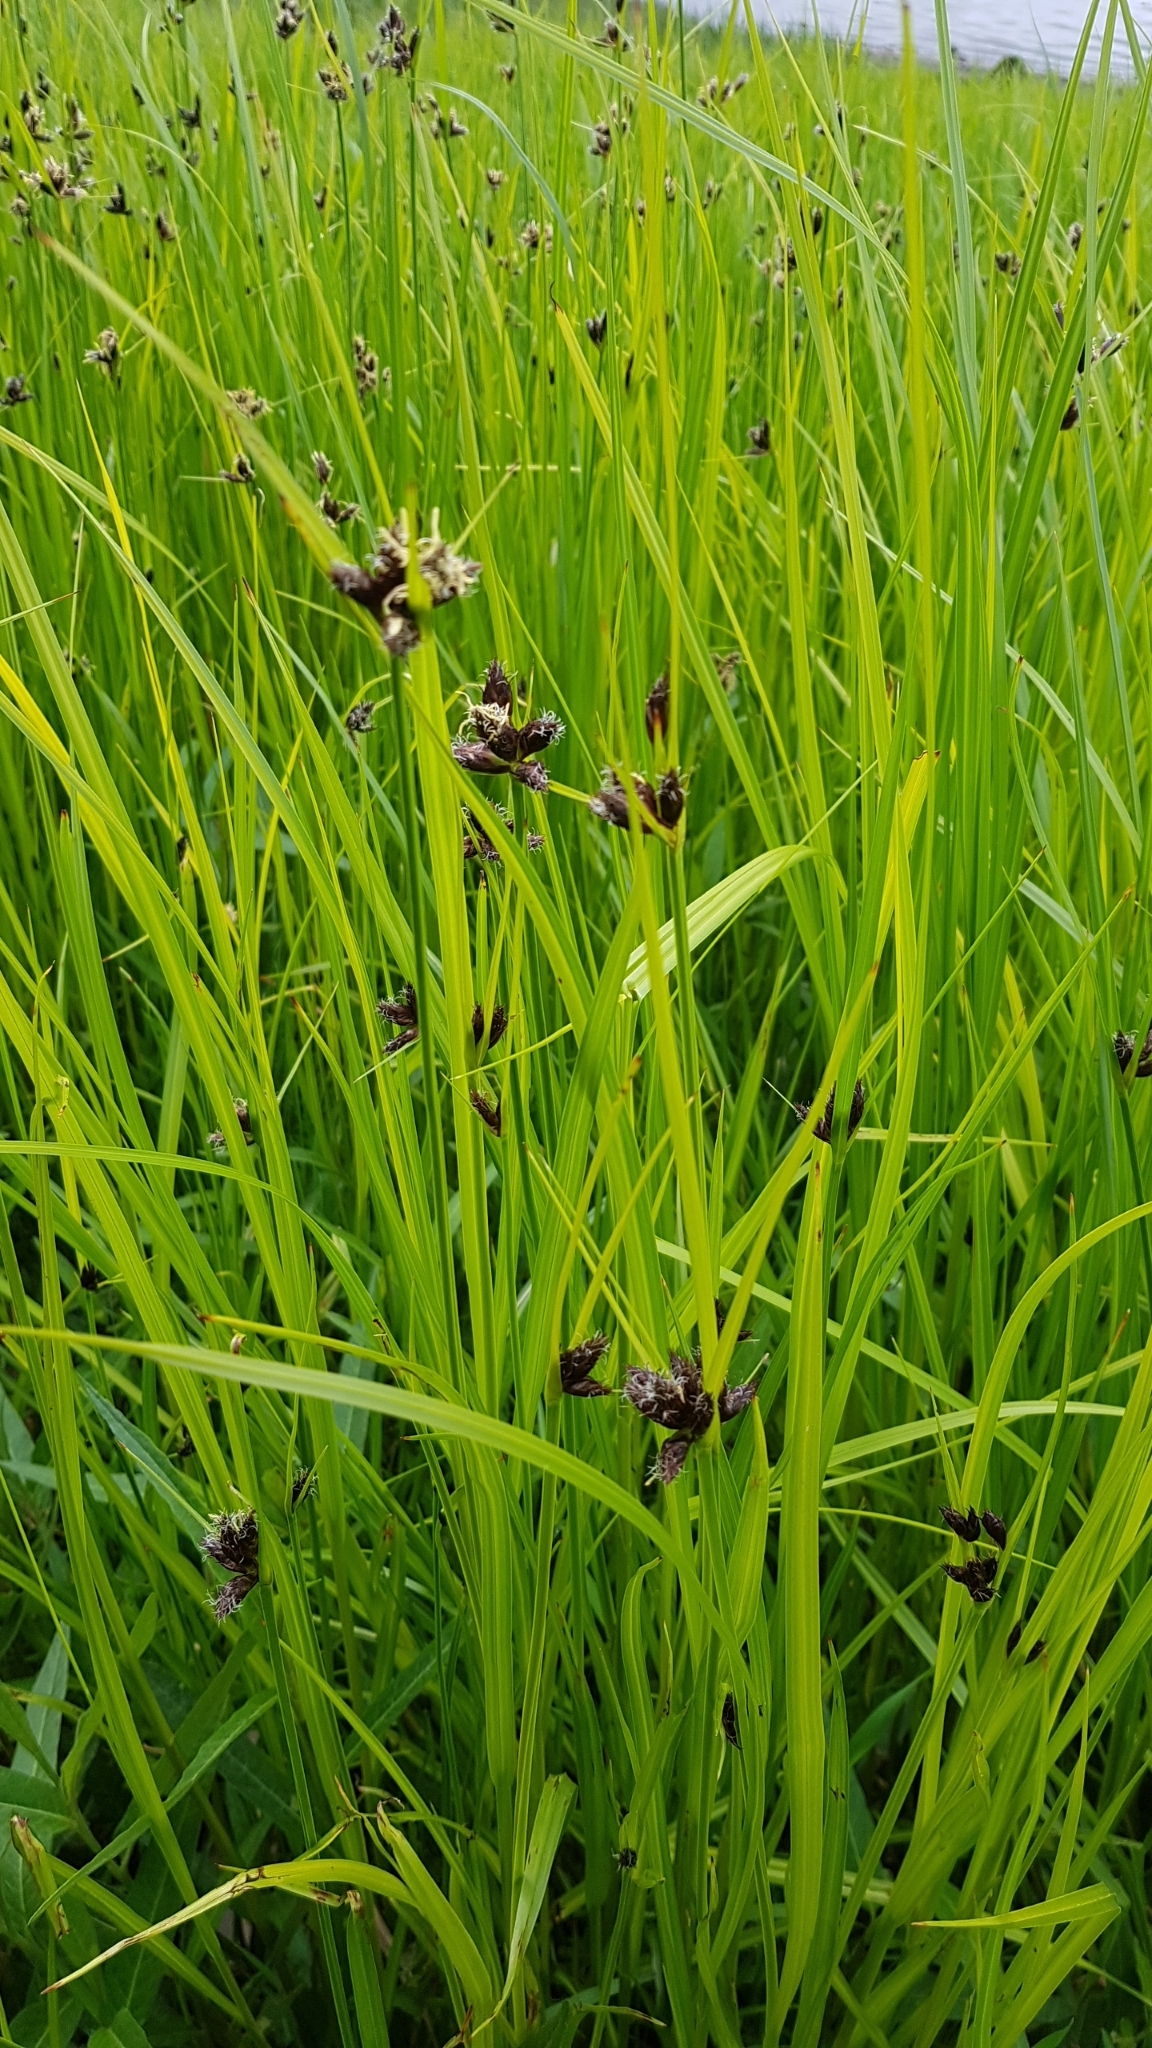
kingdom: Plantae
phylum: Tracheophyta
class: Liliopsida
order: Poales
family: Cyperaceae
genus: Bolboschoenus
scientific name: Bolboschoenus maritimus
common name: Sea club-rush
